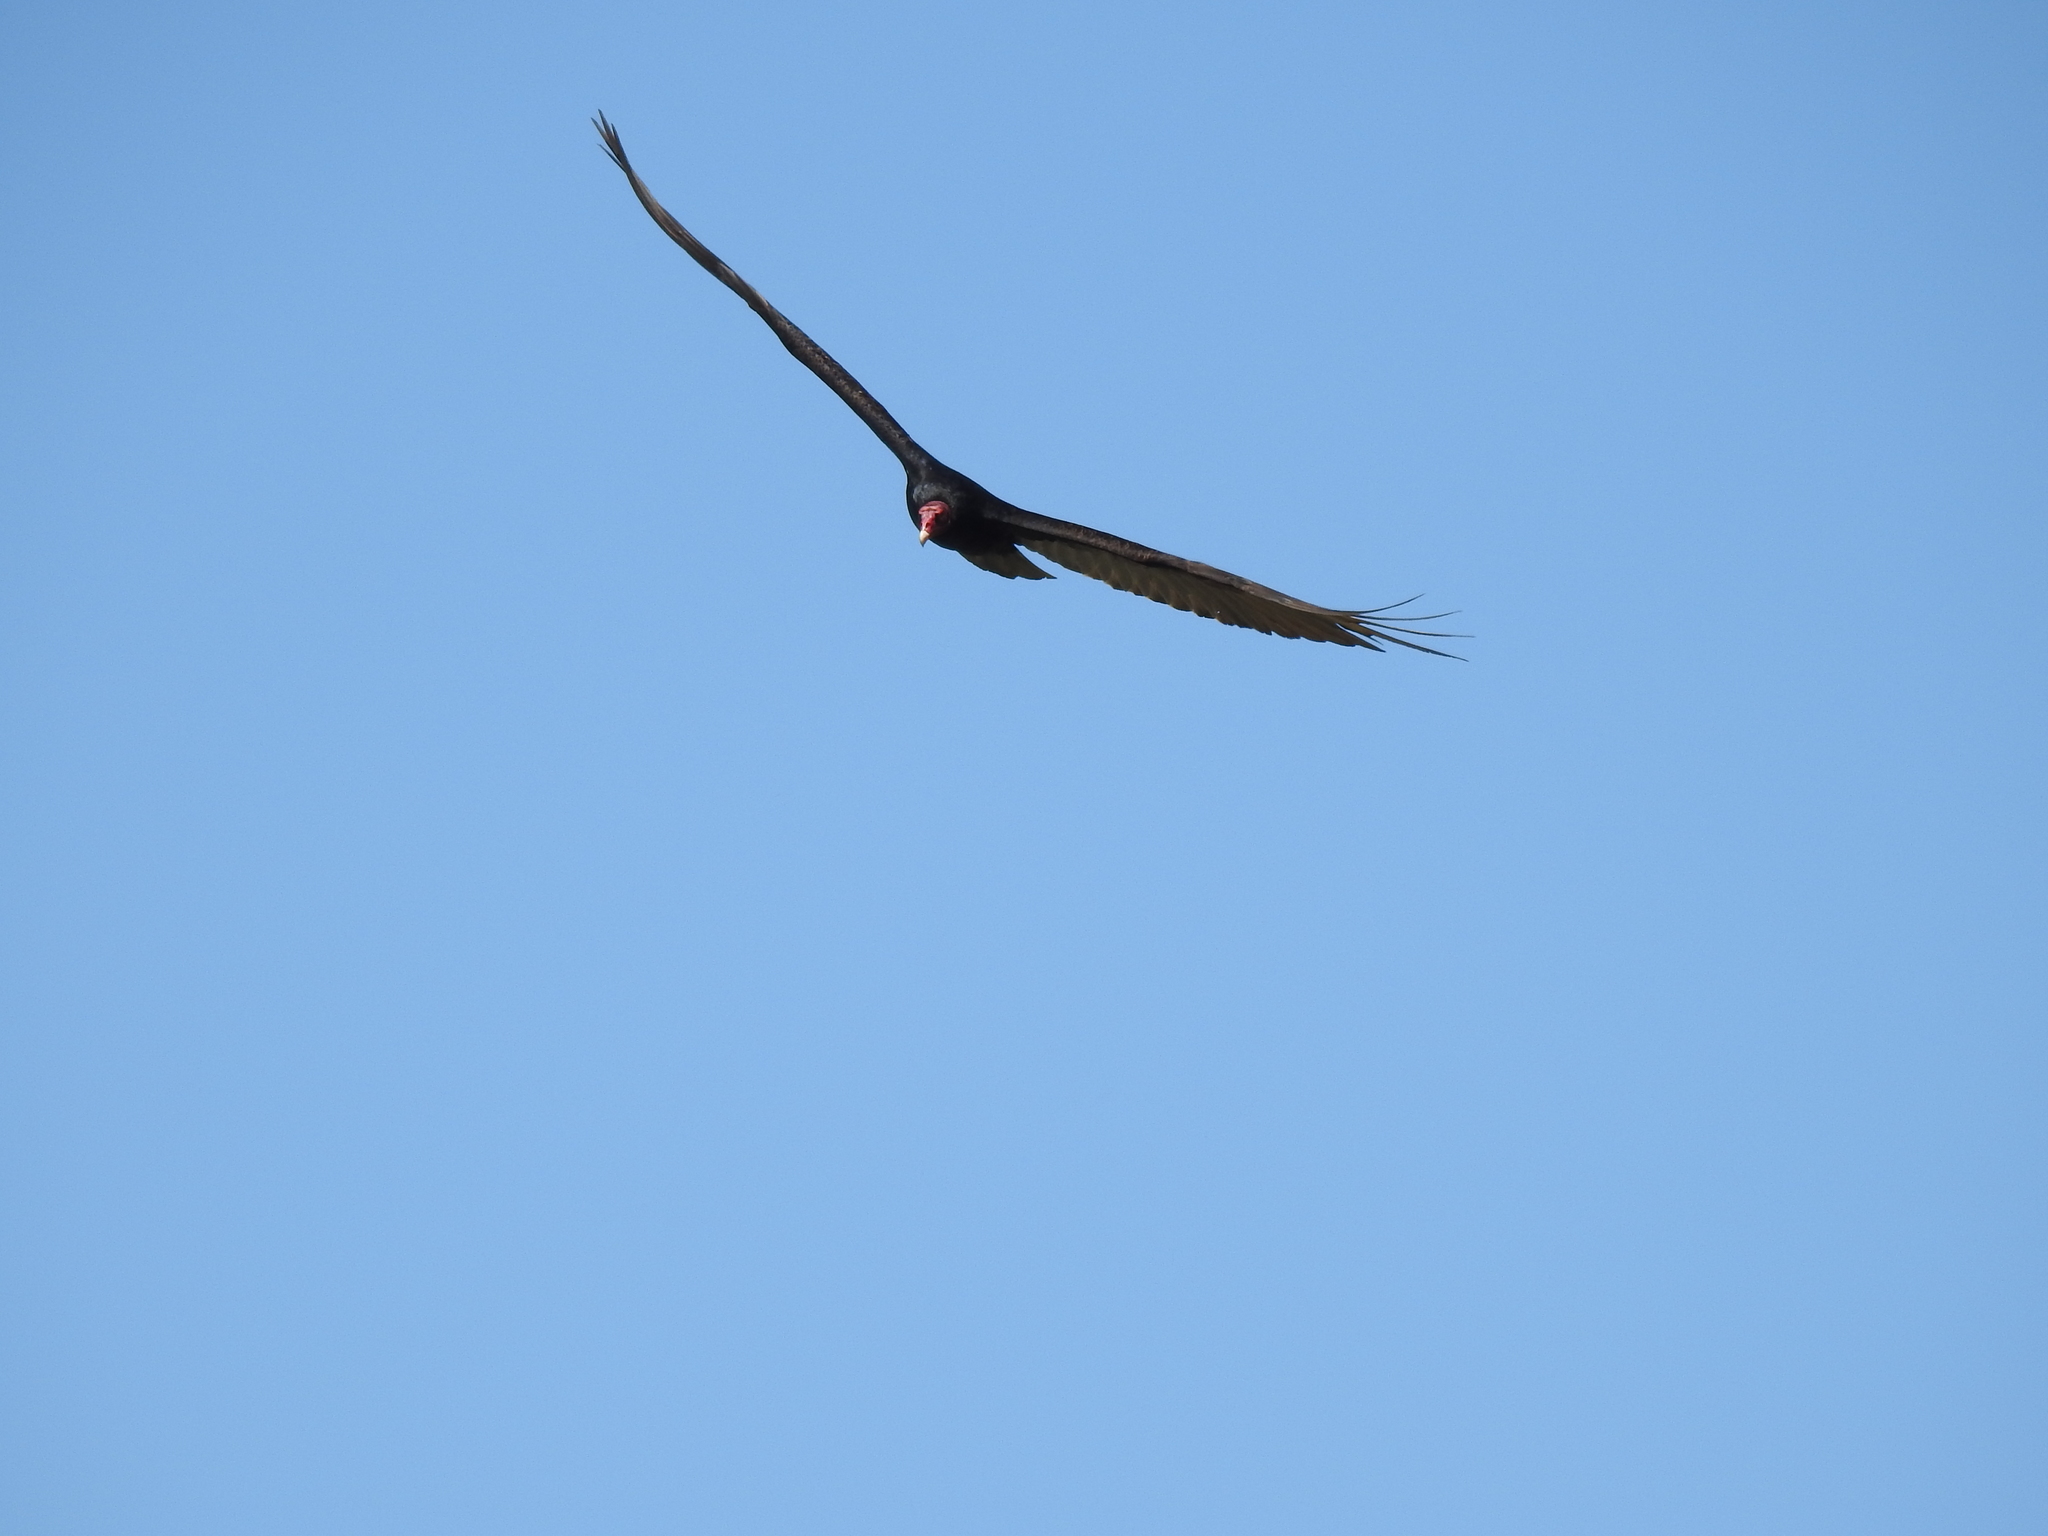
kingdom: Animalia
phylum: Chordata
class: Aves
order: Accipitriformes
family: Cathartidae
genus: Cathartes
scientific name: Cathartes aura
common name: Turkey vulture
